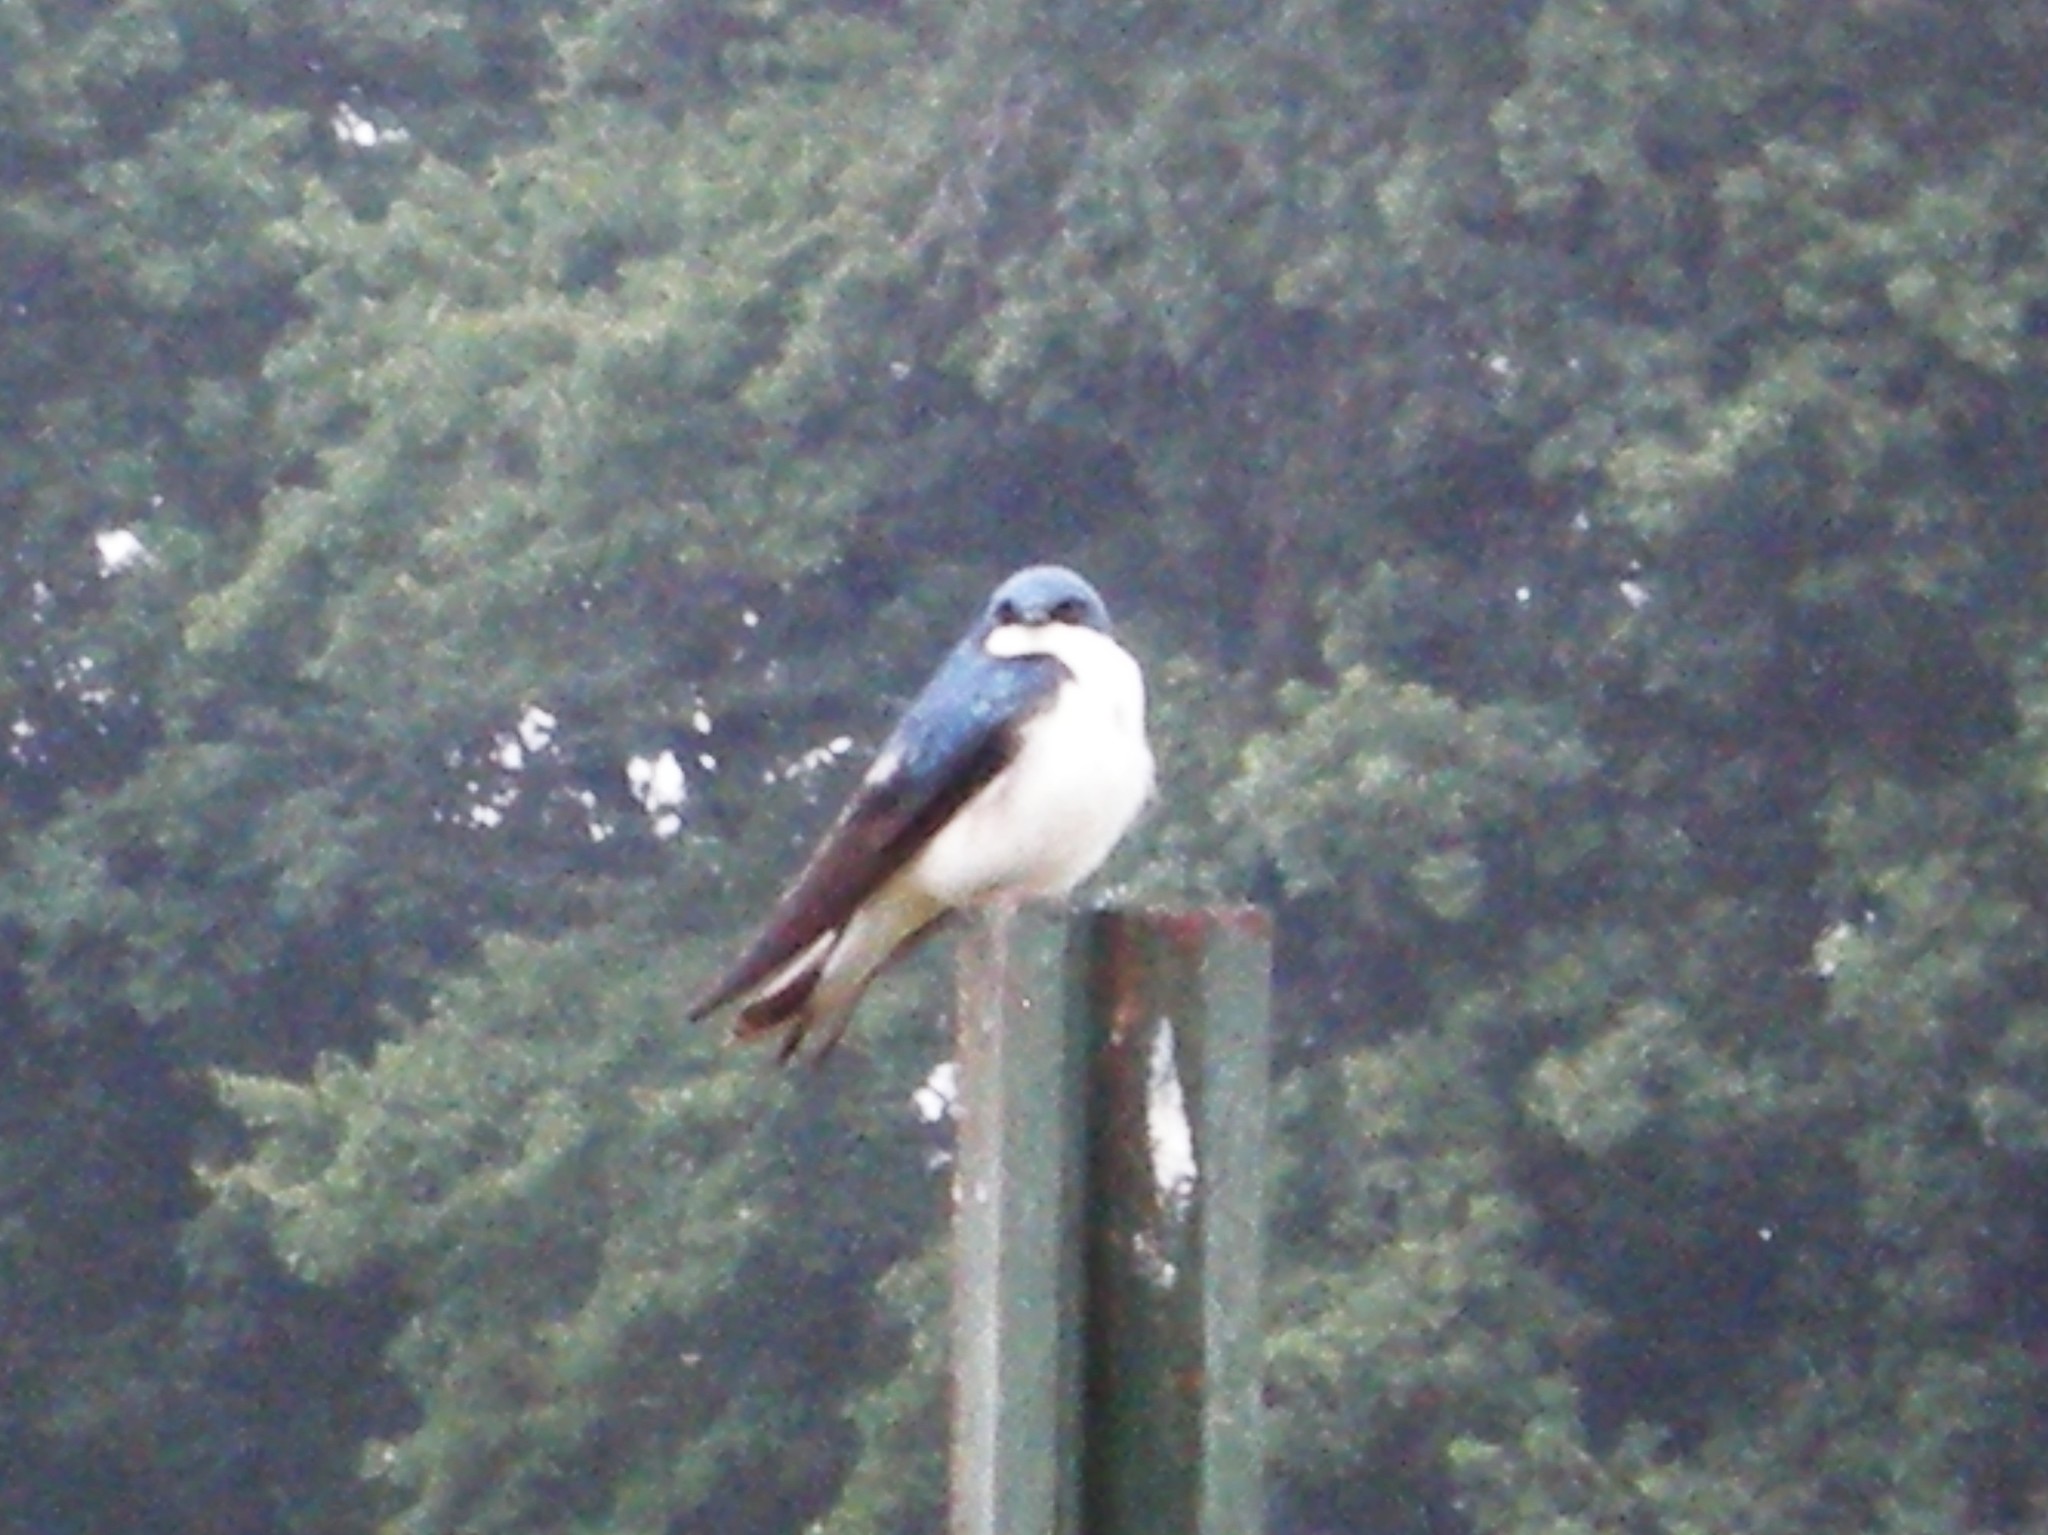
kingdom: Animalia
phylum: Chordata
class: Aves
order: Passeriformes
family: Hirundinidae
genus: Tachycineta
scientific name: Tachycineta bicolor
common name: Tree swallow
